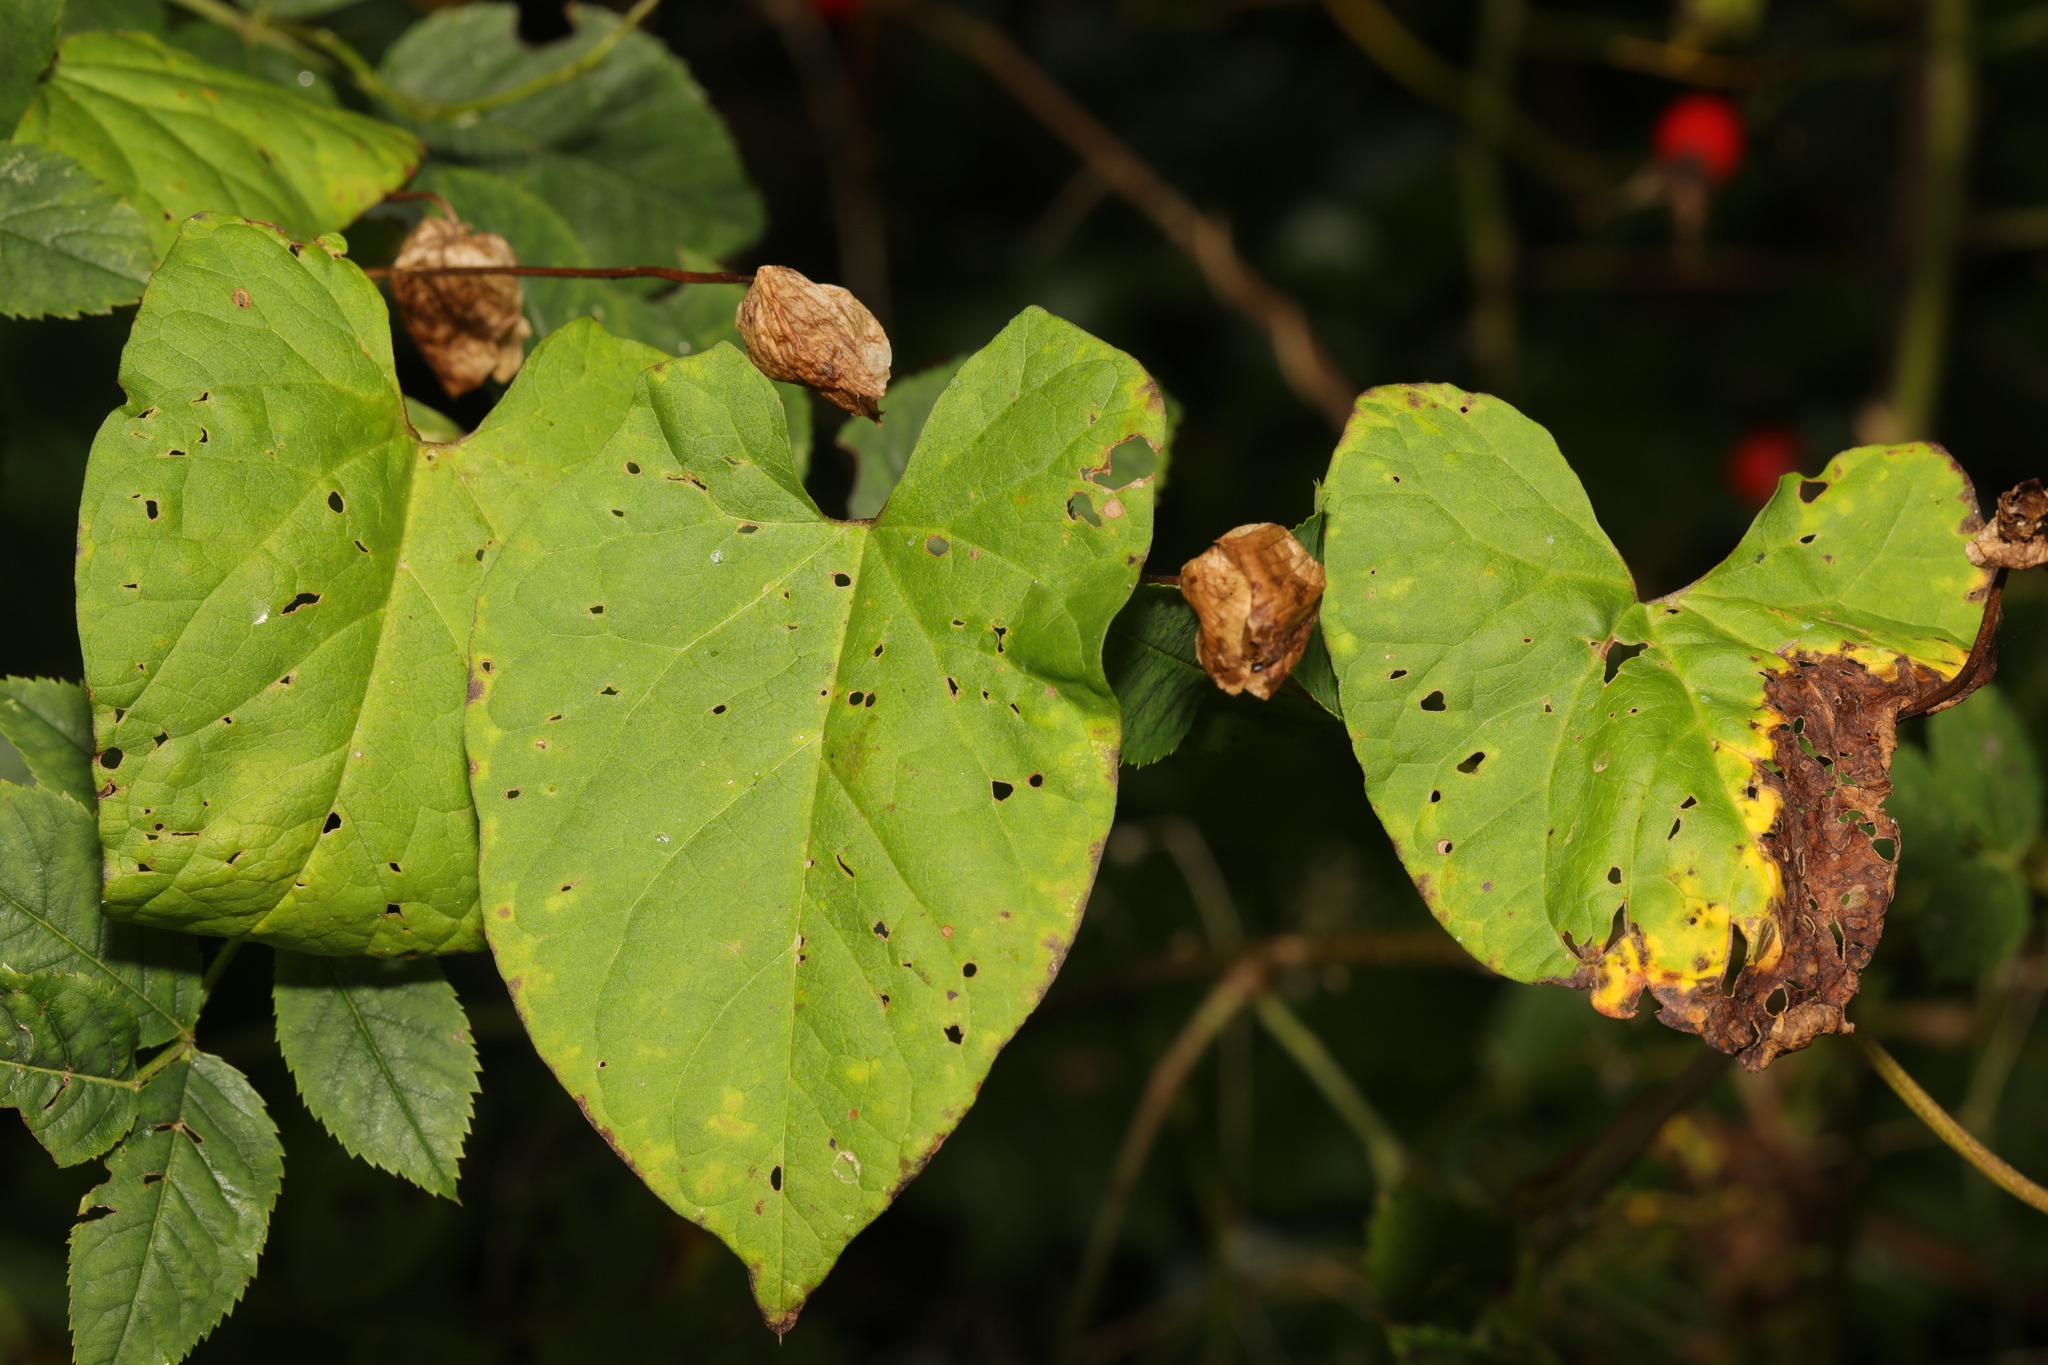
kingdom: Plantae
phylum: Tracheophyta
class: Magnoliopsida
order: Solanales
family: Convolvulaceae
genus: Calystegia
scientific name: Calystegia silvatica
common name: Large bindweed
